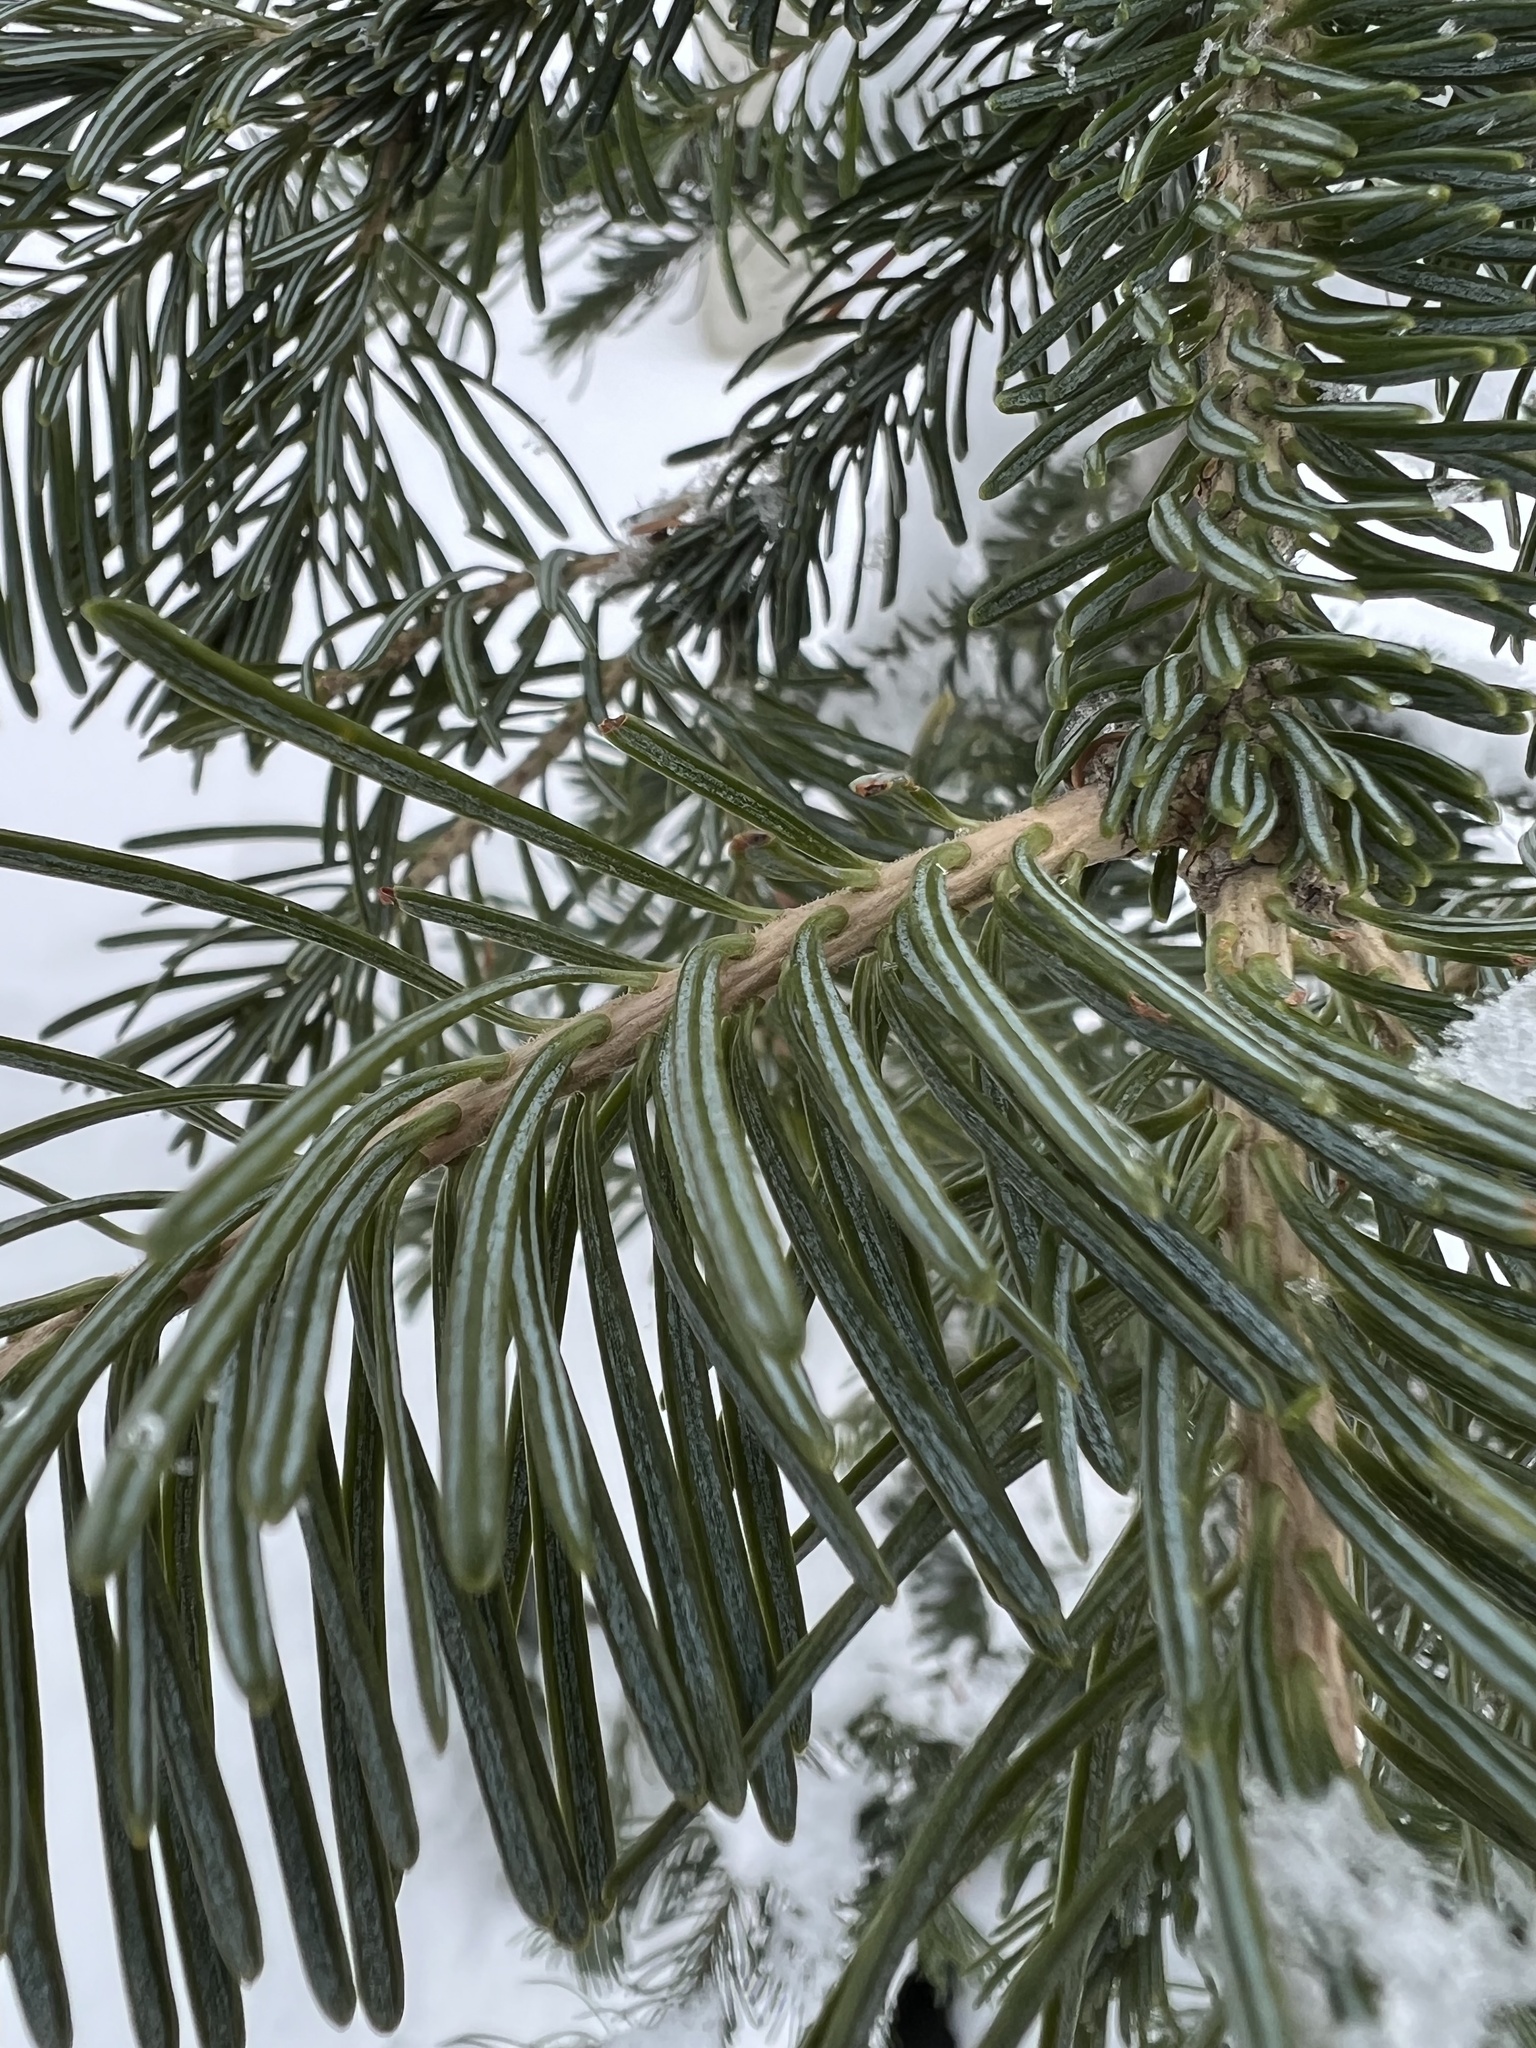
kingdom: Plantae
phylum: Tracheophyta
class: Pinopsida
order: Pinales
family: Pinaceae
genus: Abies
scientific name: Abies lasiocarpa
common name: Subalpine fir
